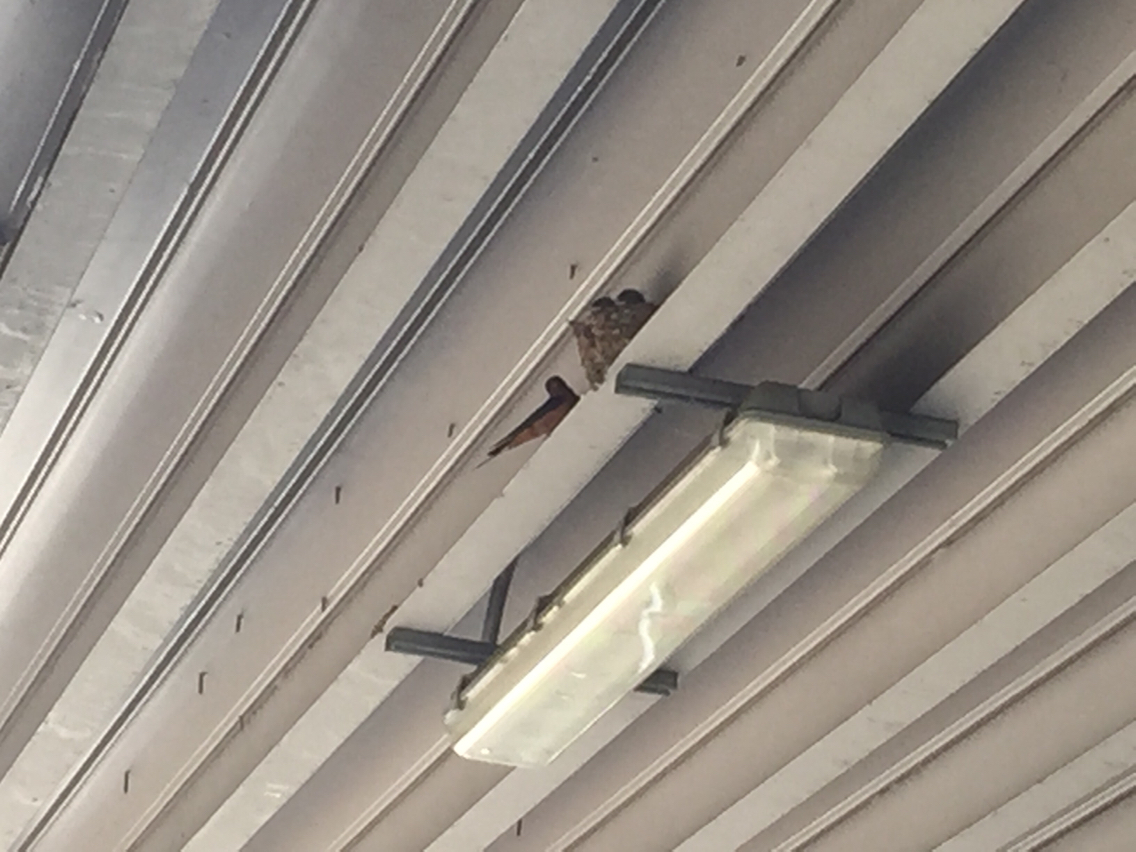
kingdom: Animalia
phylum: Chordata
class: Aves
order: Passeriformes
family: Hirundinidae
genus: Hirundo
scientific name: Hirundo rustica
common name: Barn swallow
